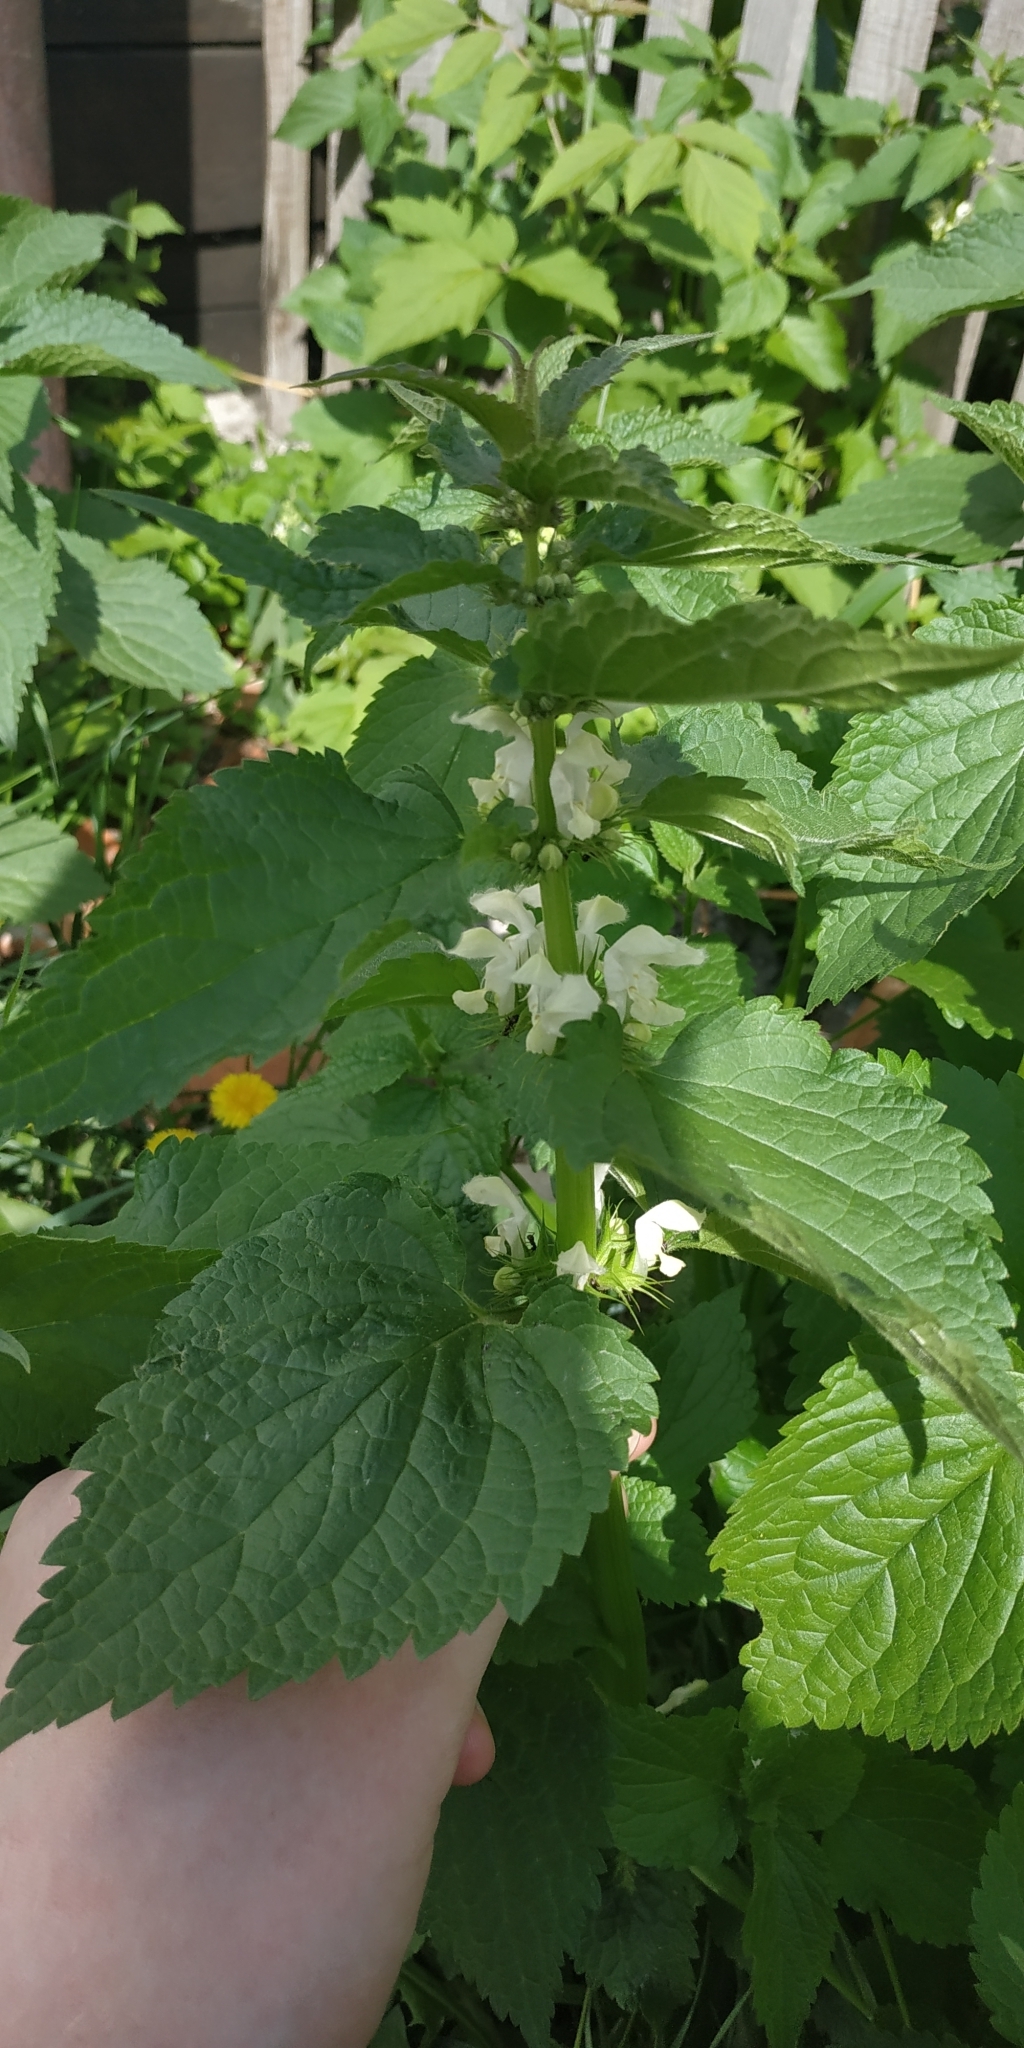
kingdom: Plantae
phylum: Tracheophyta
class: Magnoliopsida
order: Lamiales
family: Lamiaceae
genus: Lamium
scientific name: Lamium album
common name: White dead-nettle
